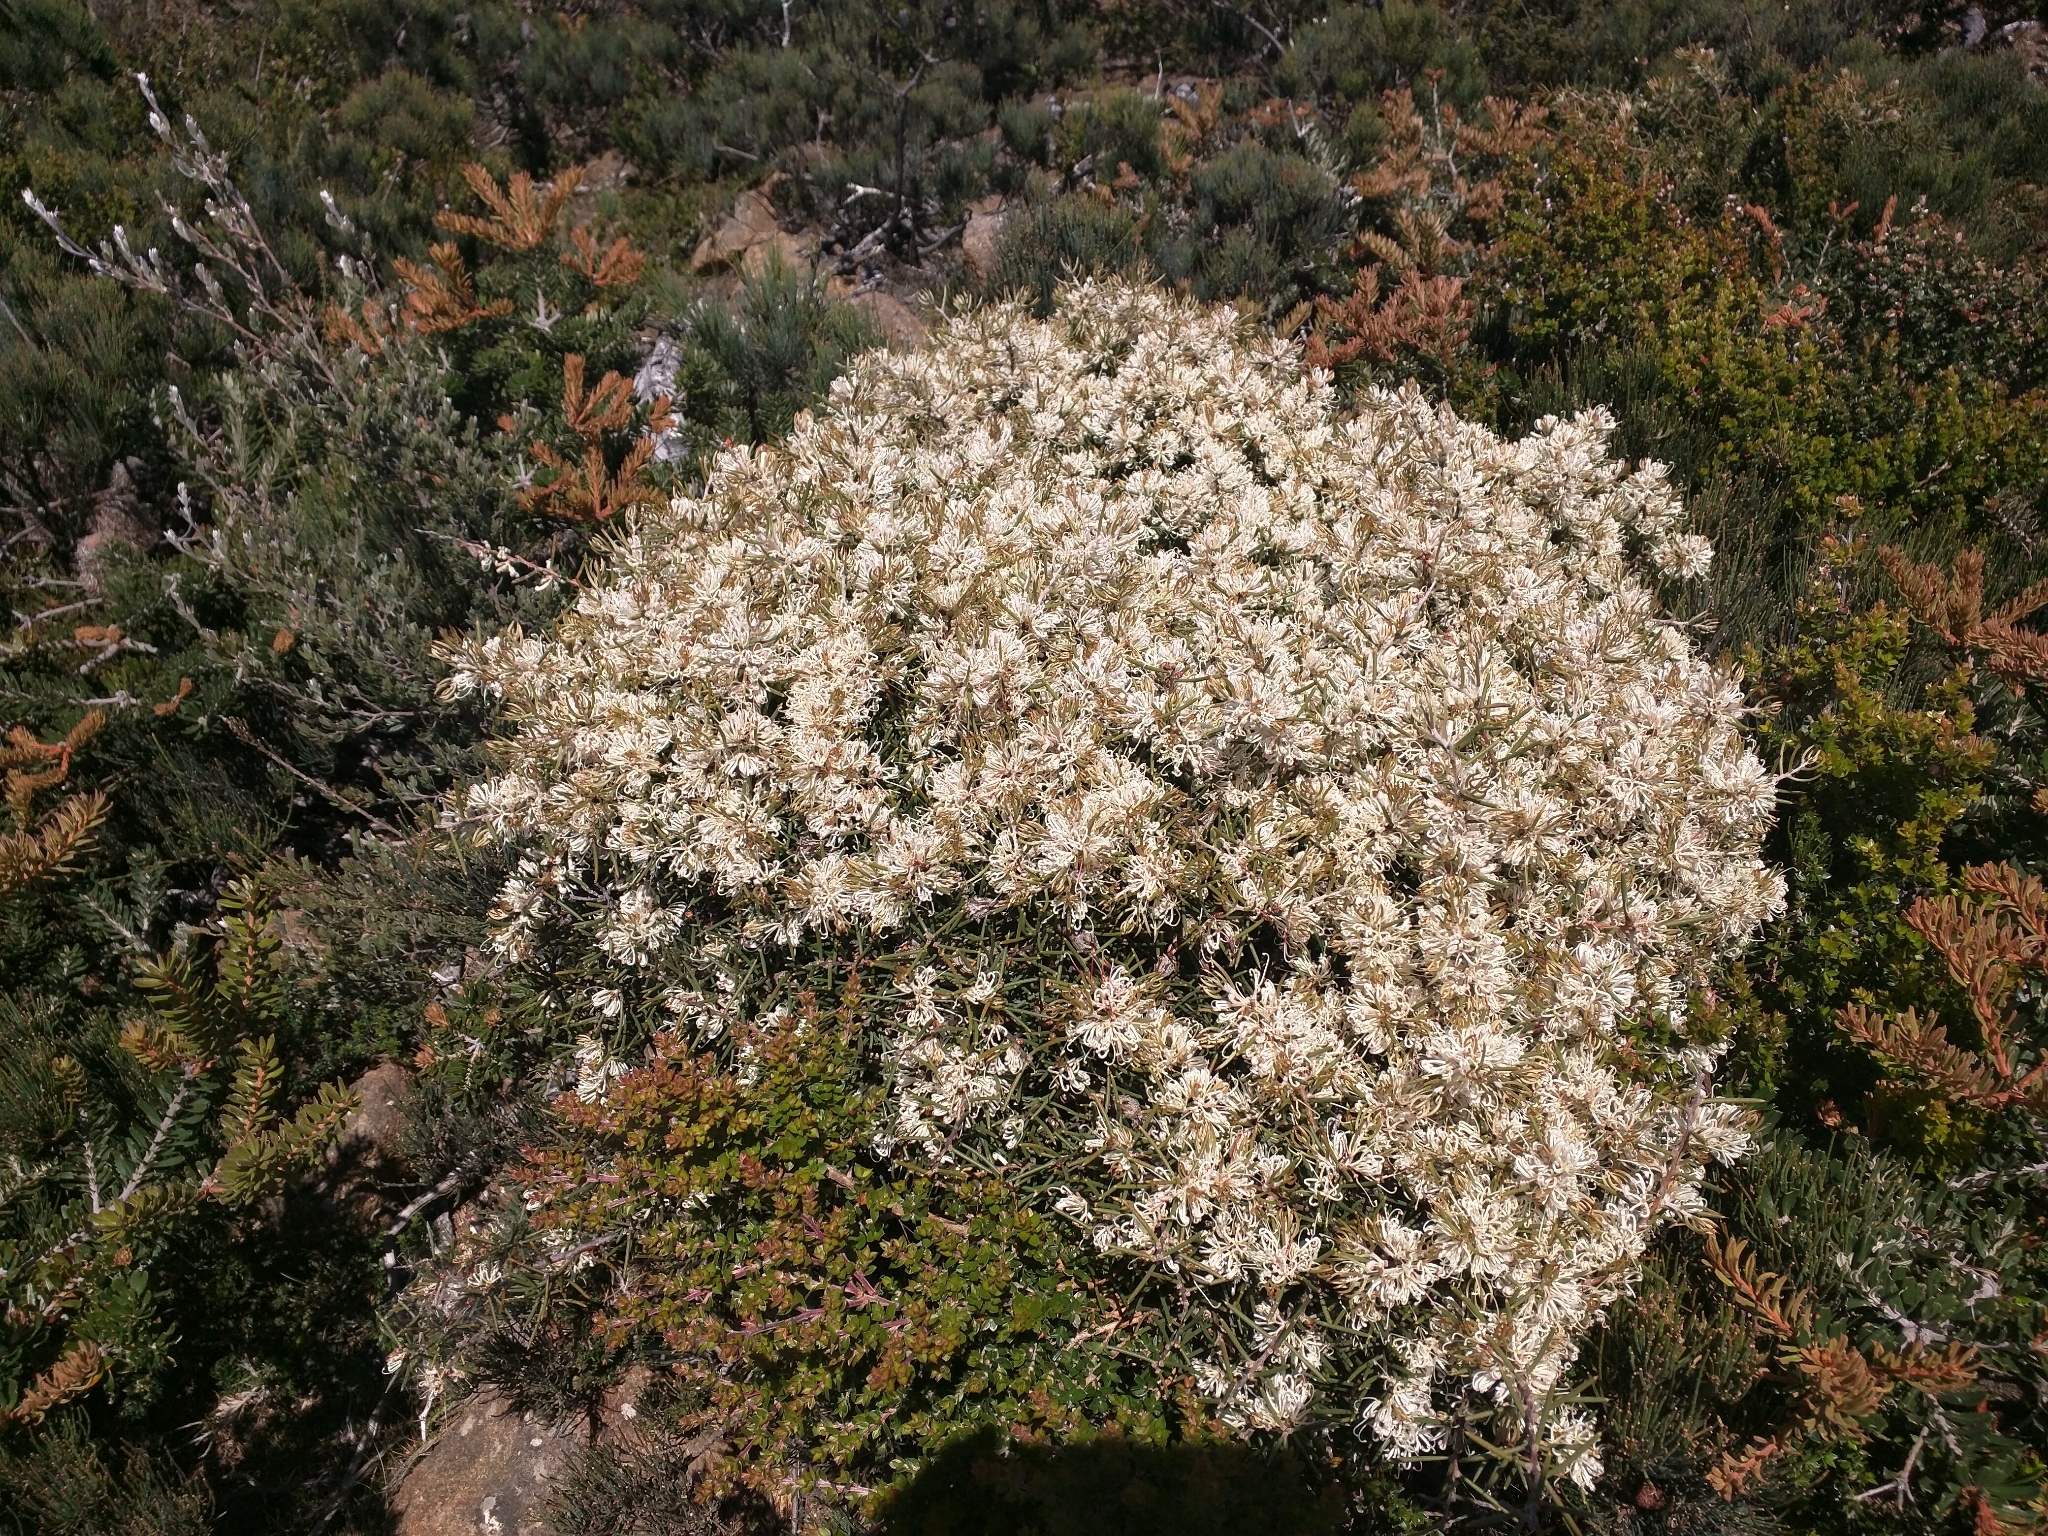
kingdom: Plantae
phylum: Tracheophyta
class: Magnoliopsida
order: Proteales
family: Proteaceae
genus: Hakea
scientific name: Hakea teretifolia
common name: Dagger hakea
